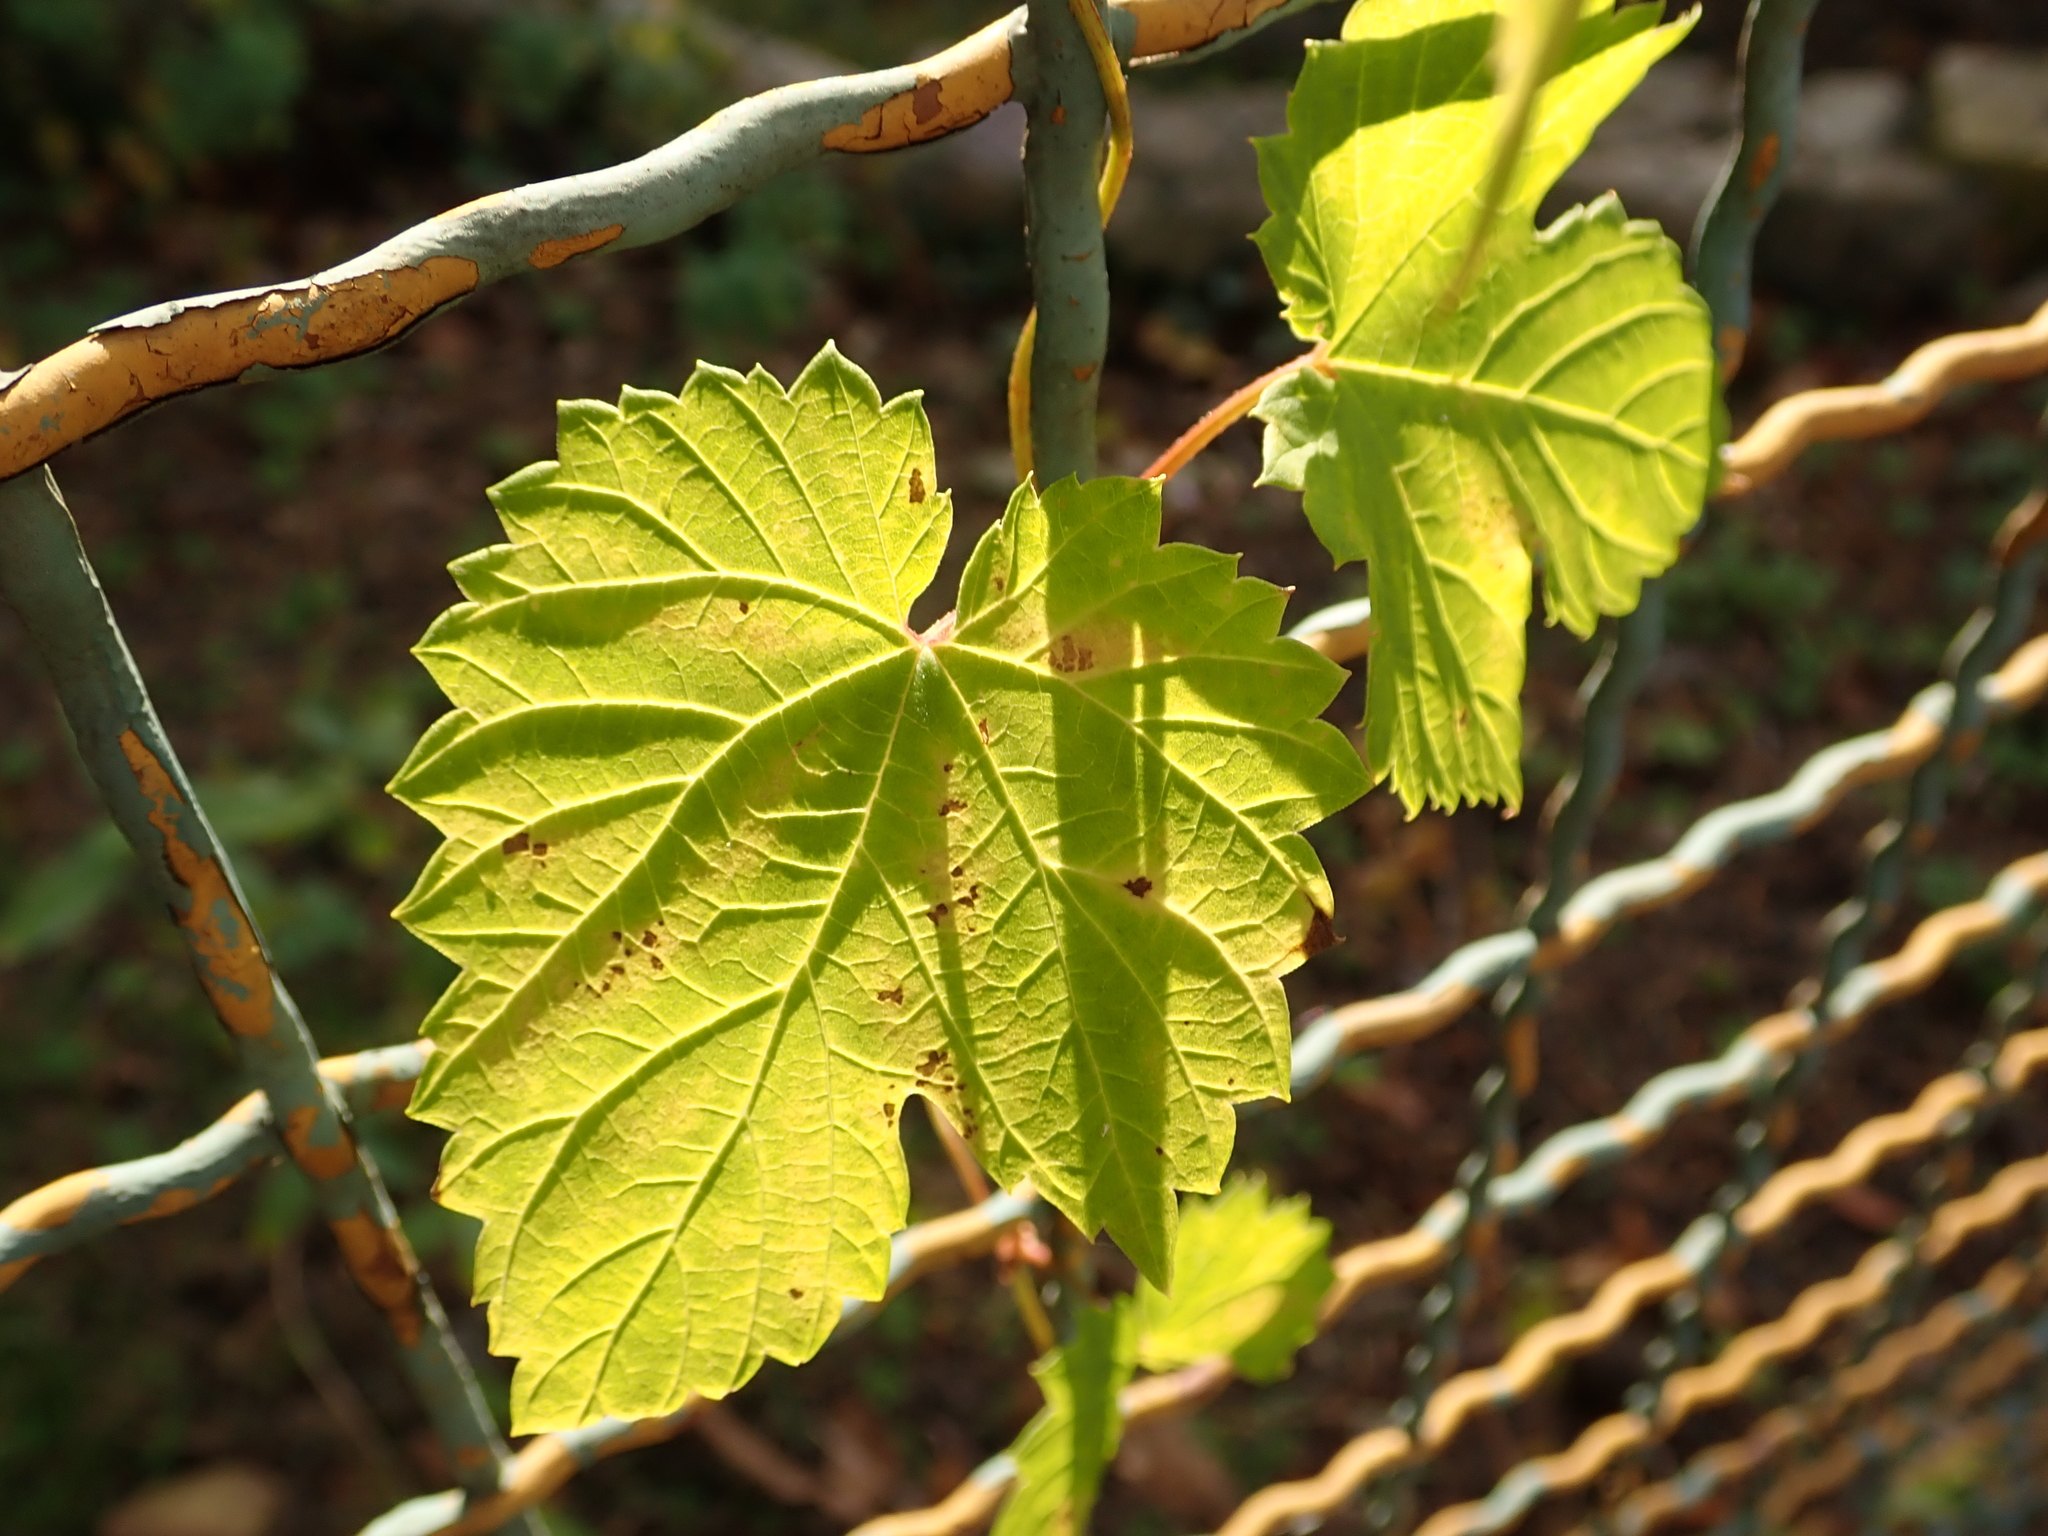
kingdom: Plantae
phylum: Tracheophyta
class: Magnoliopsida
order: Rosales
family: Cannabaceae
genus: Humulus
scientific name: Humulus lupulus
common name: Hop
